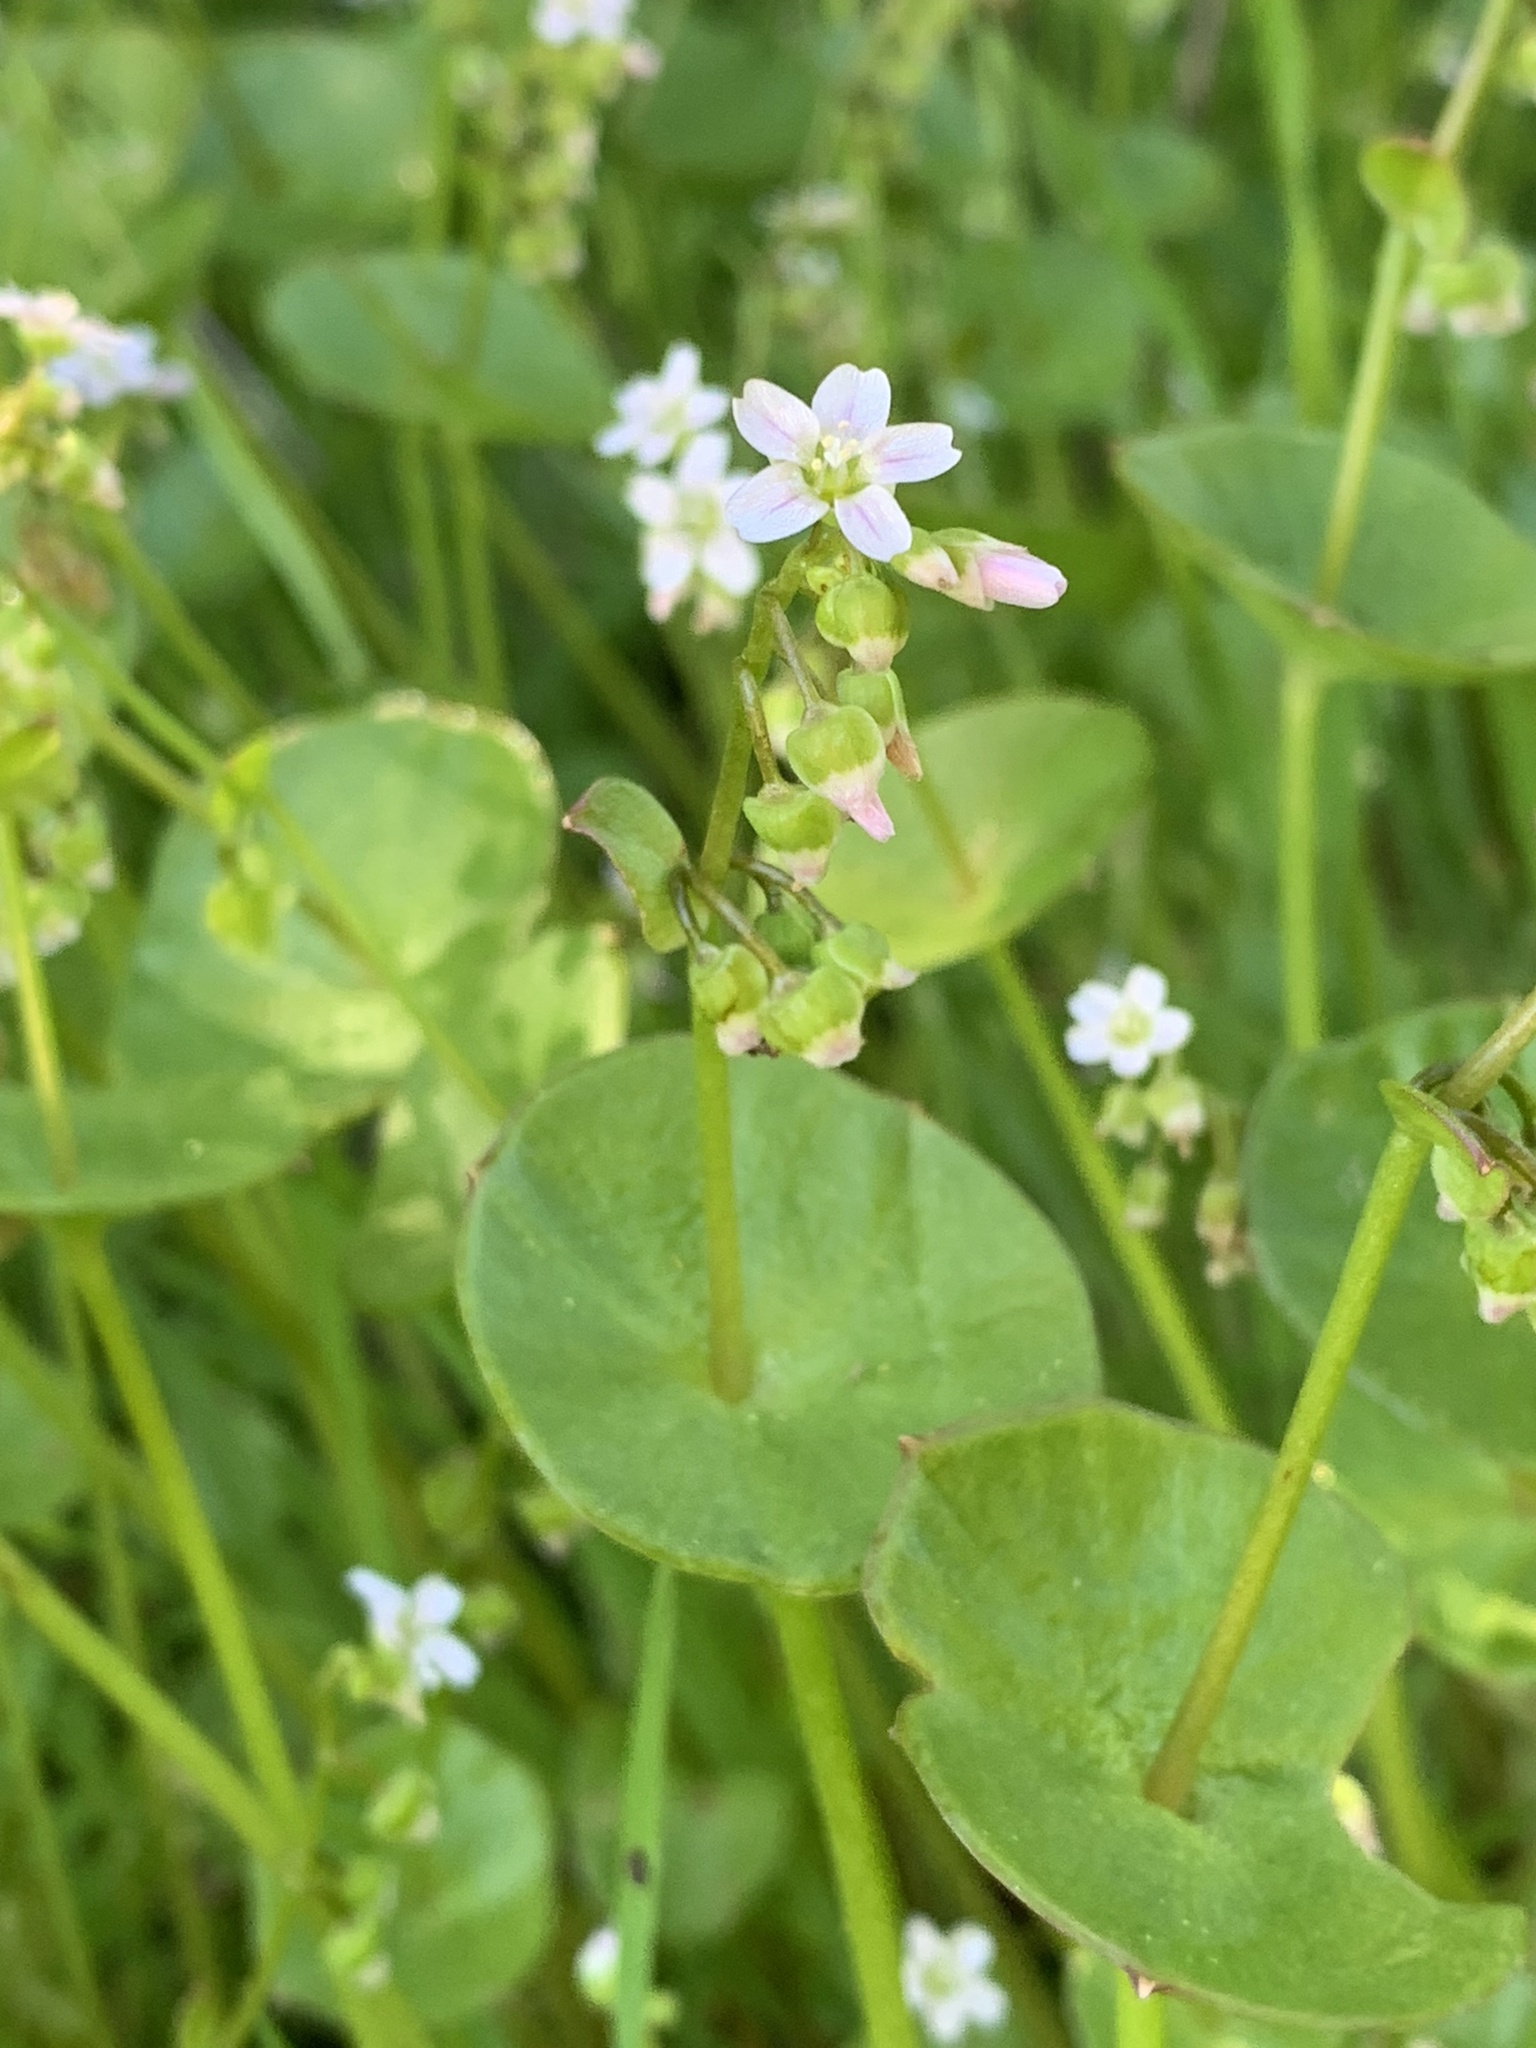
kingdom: Plantae
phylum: Tracheophyta
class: Magnoliopsida
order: Caryophyllales
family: Montiaceae
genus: Claytonia
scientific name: Claytonia perfoliata
